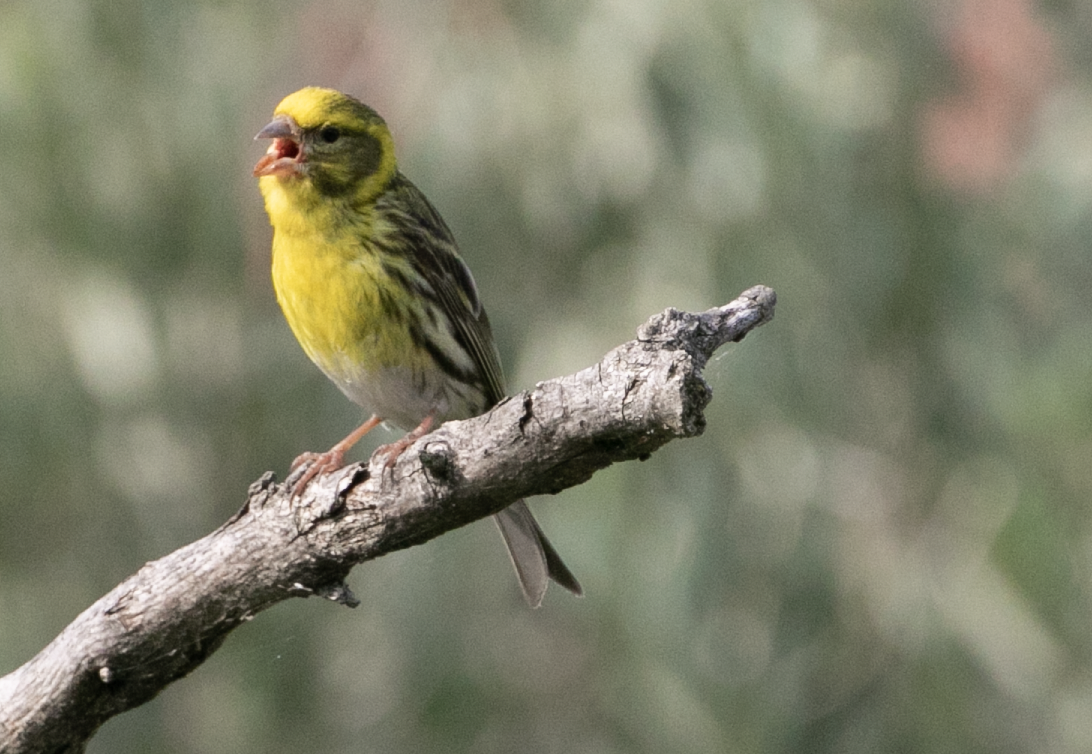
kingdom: Animalia
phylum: Chordata
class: Aves
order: Passeriformes
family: Fringillidae
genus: Serinus
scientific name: Serinus serinus
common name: European serin
